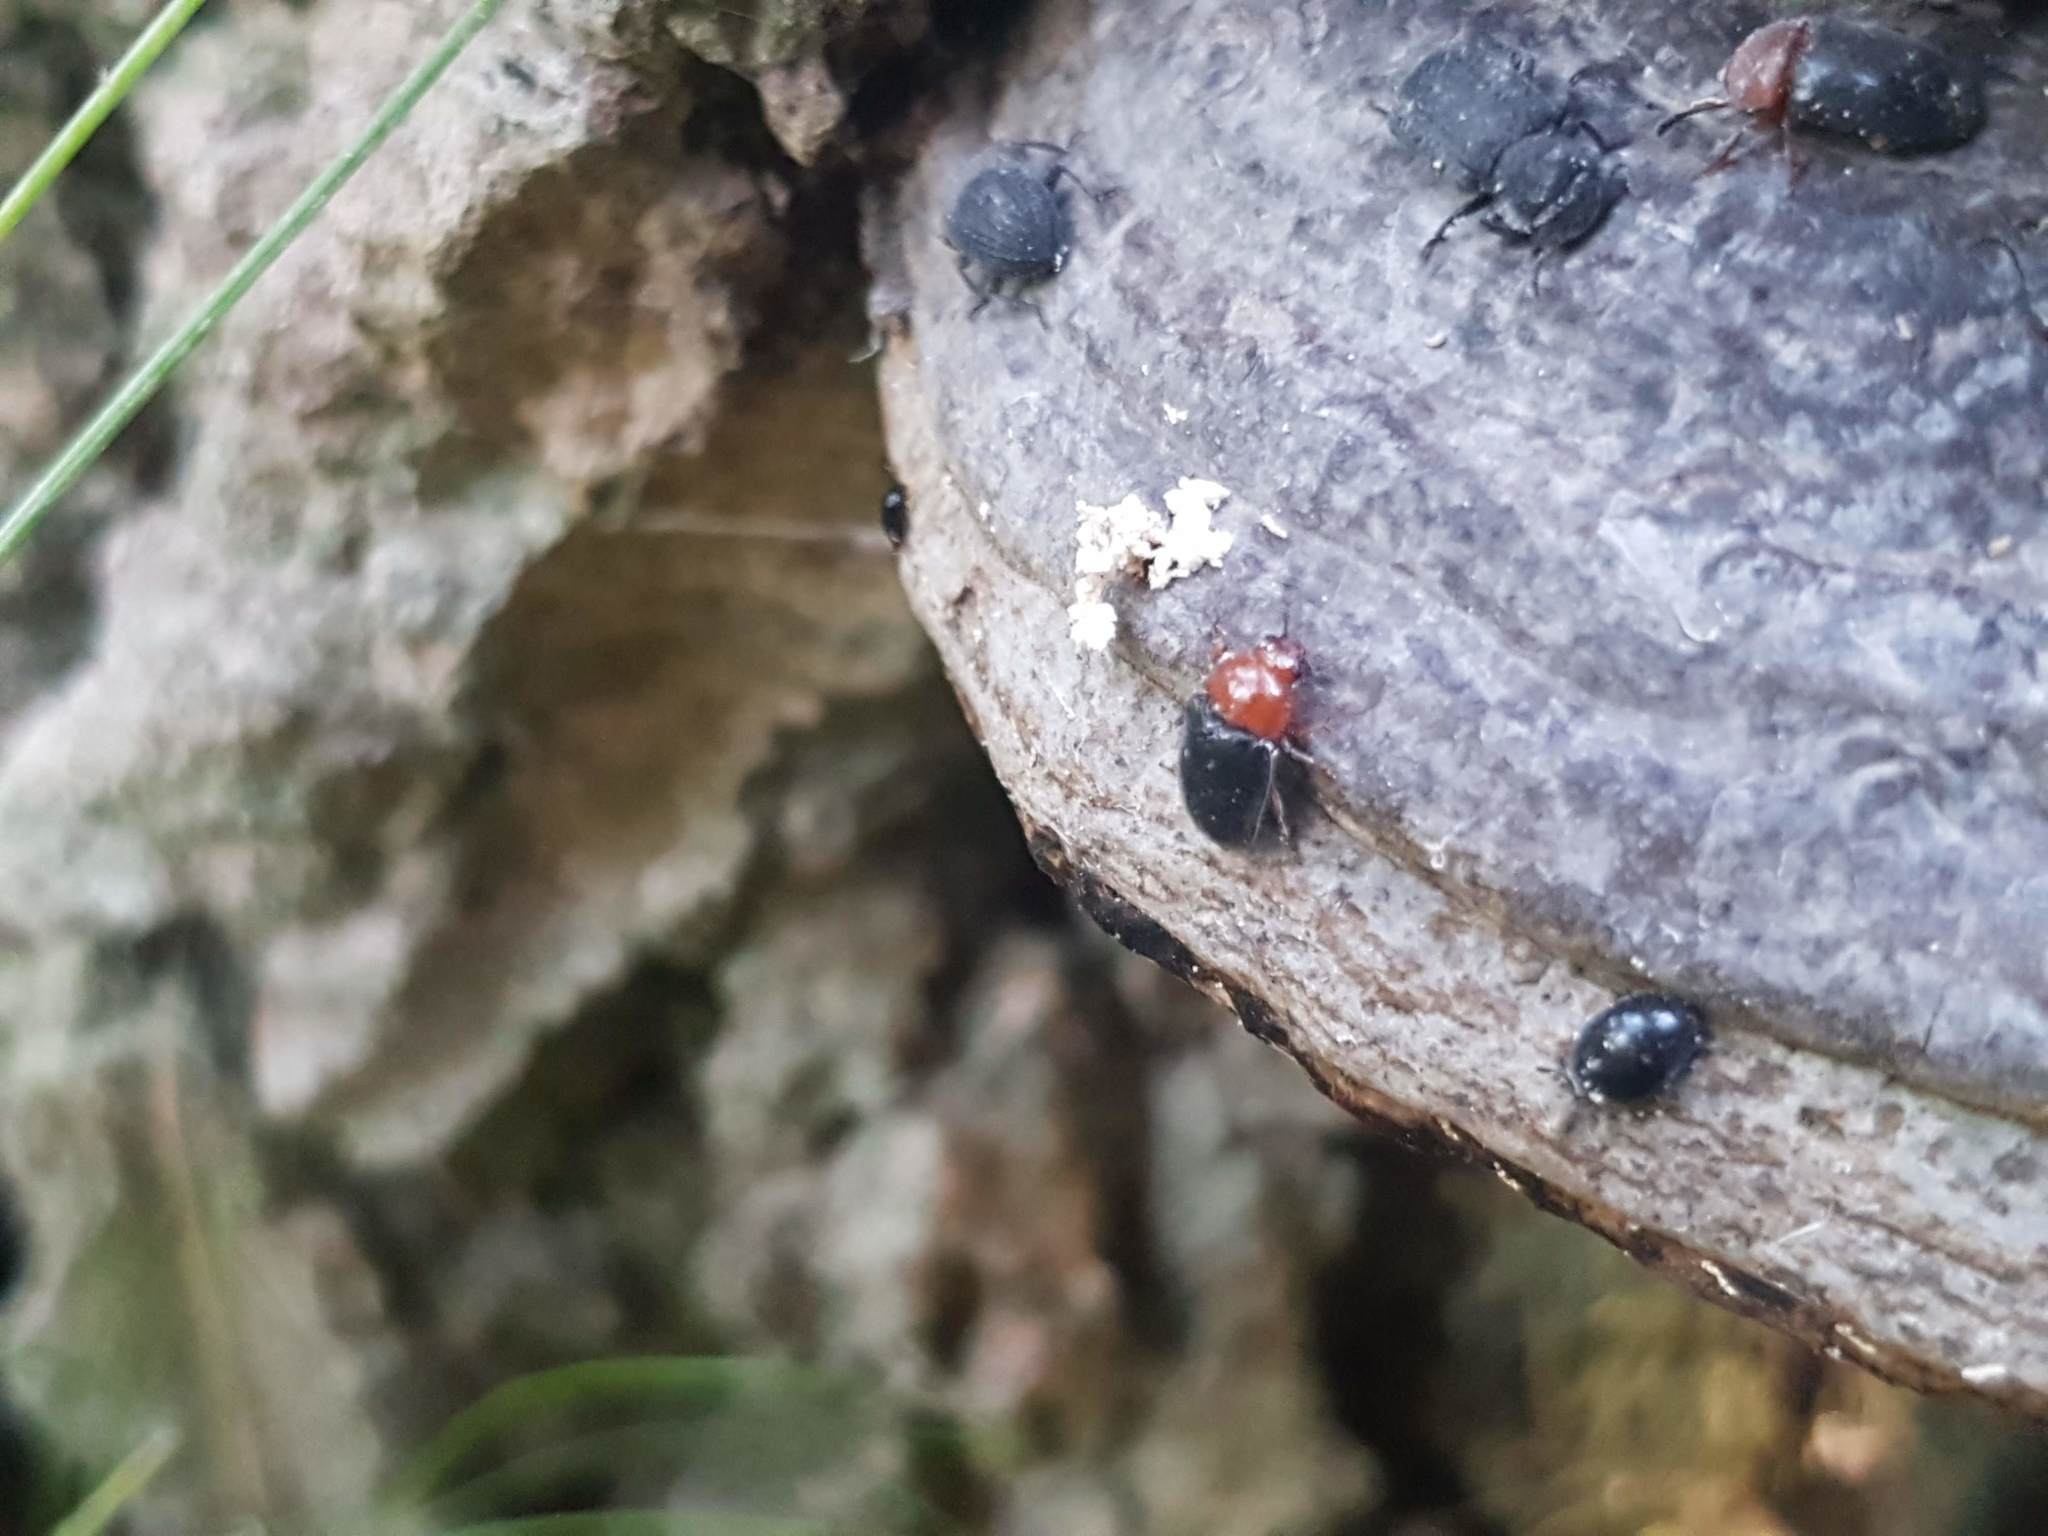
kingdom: Animalia
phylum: Arthropoda
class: Insecta
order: Coleoptera
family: Erotylidae
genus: Triplax
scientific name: Triplax russica
